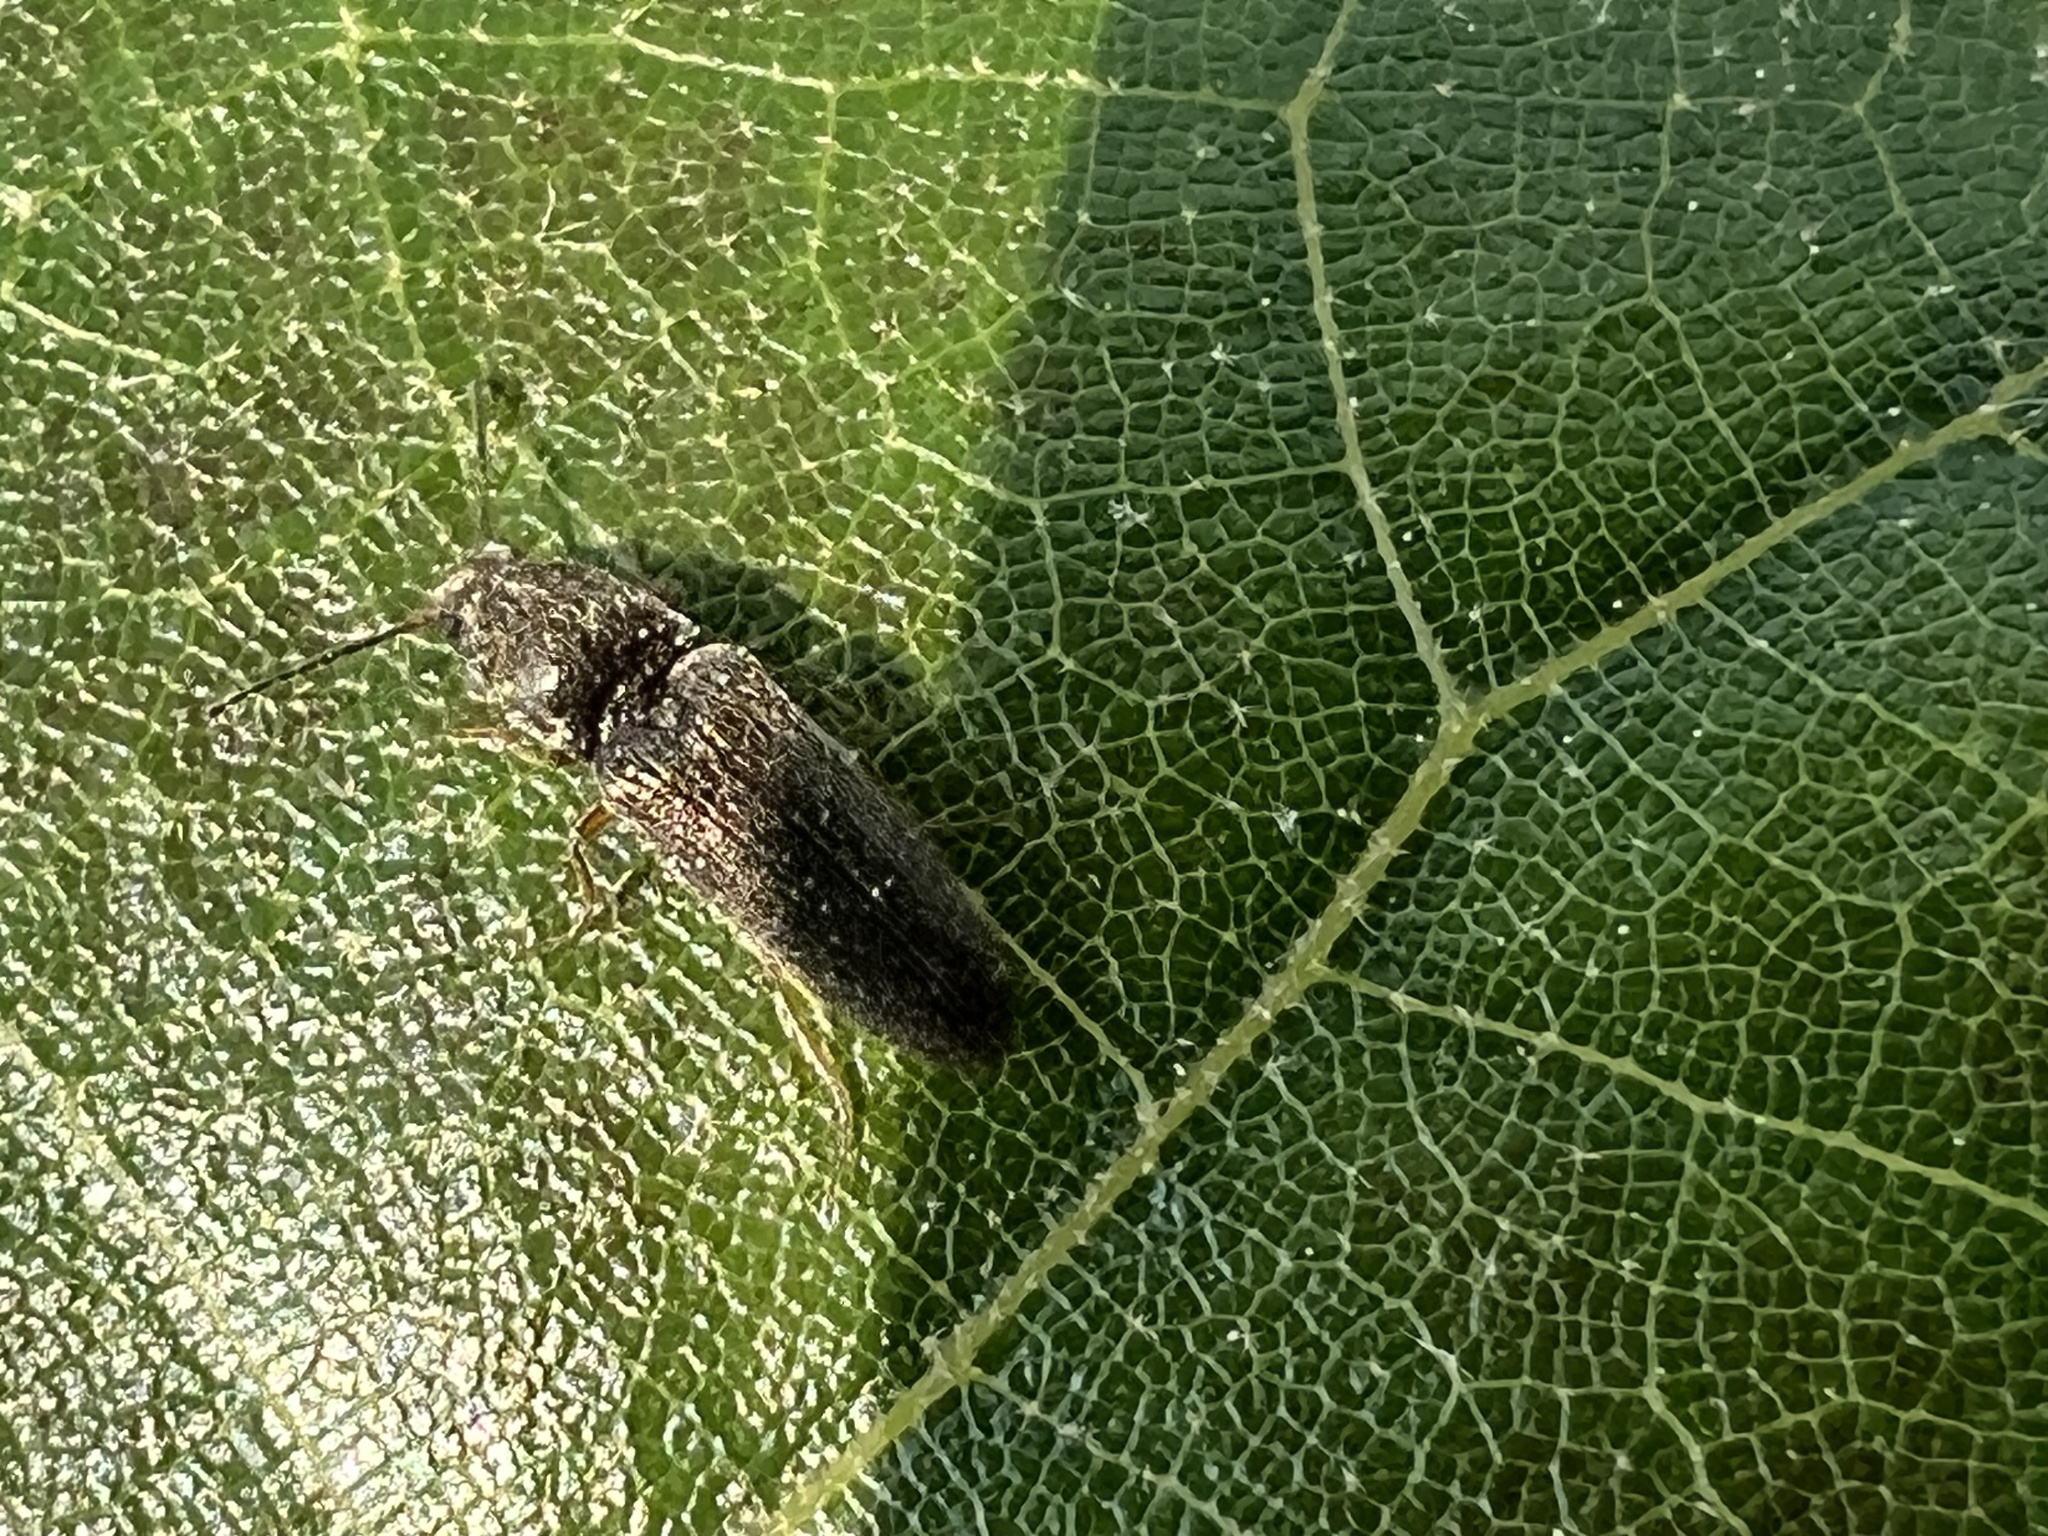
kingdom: Animalia
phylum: Arthropoda
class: Insecta
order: Coleoptera
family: Elateridae
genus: Limonius
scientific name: Limonius quercinus
